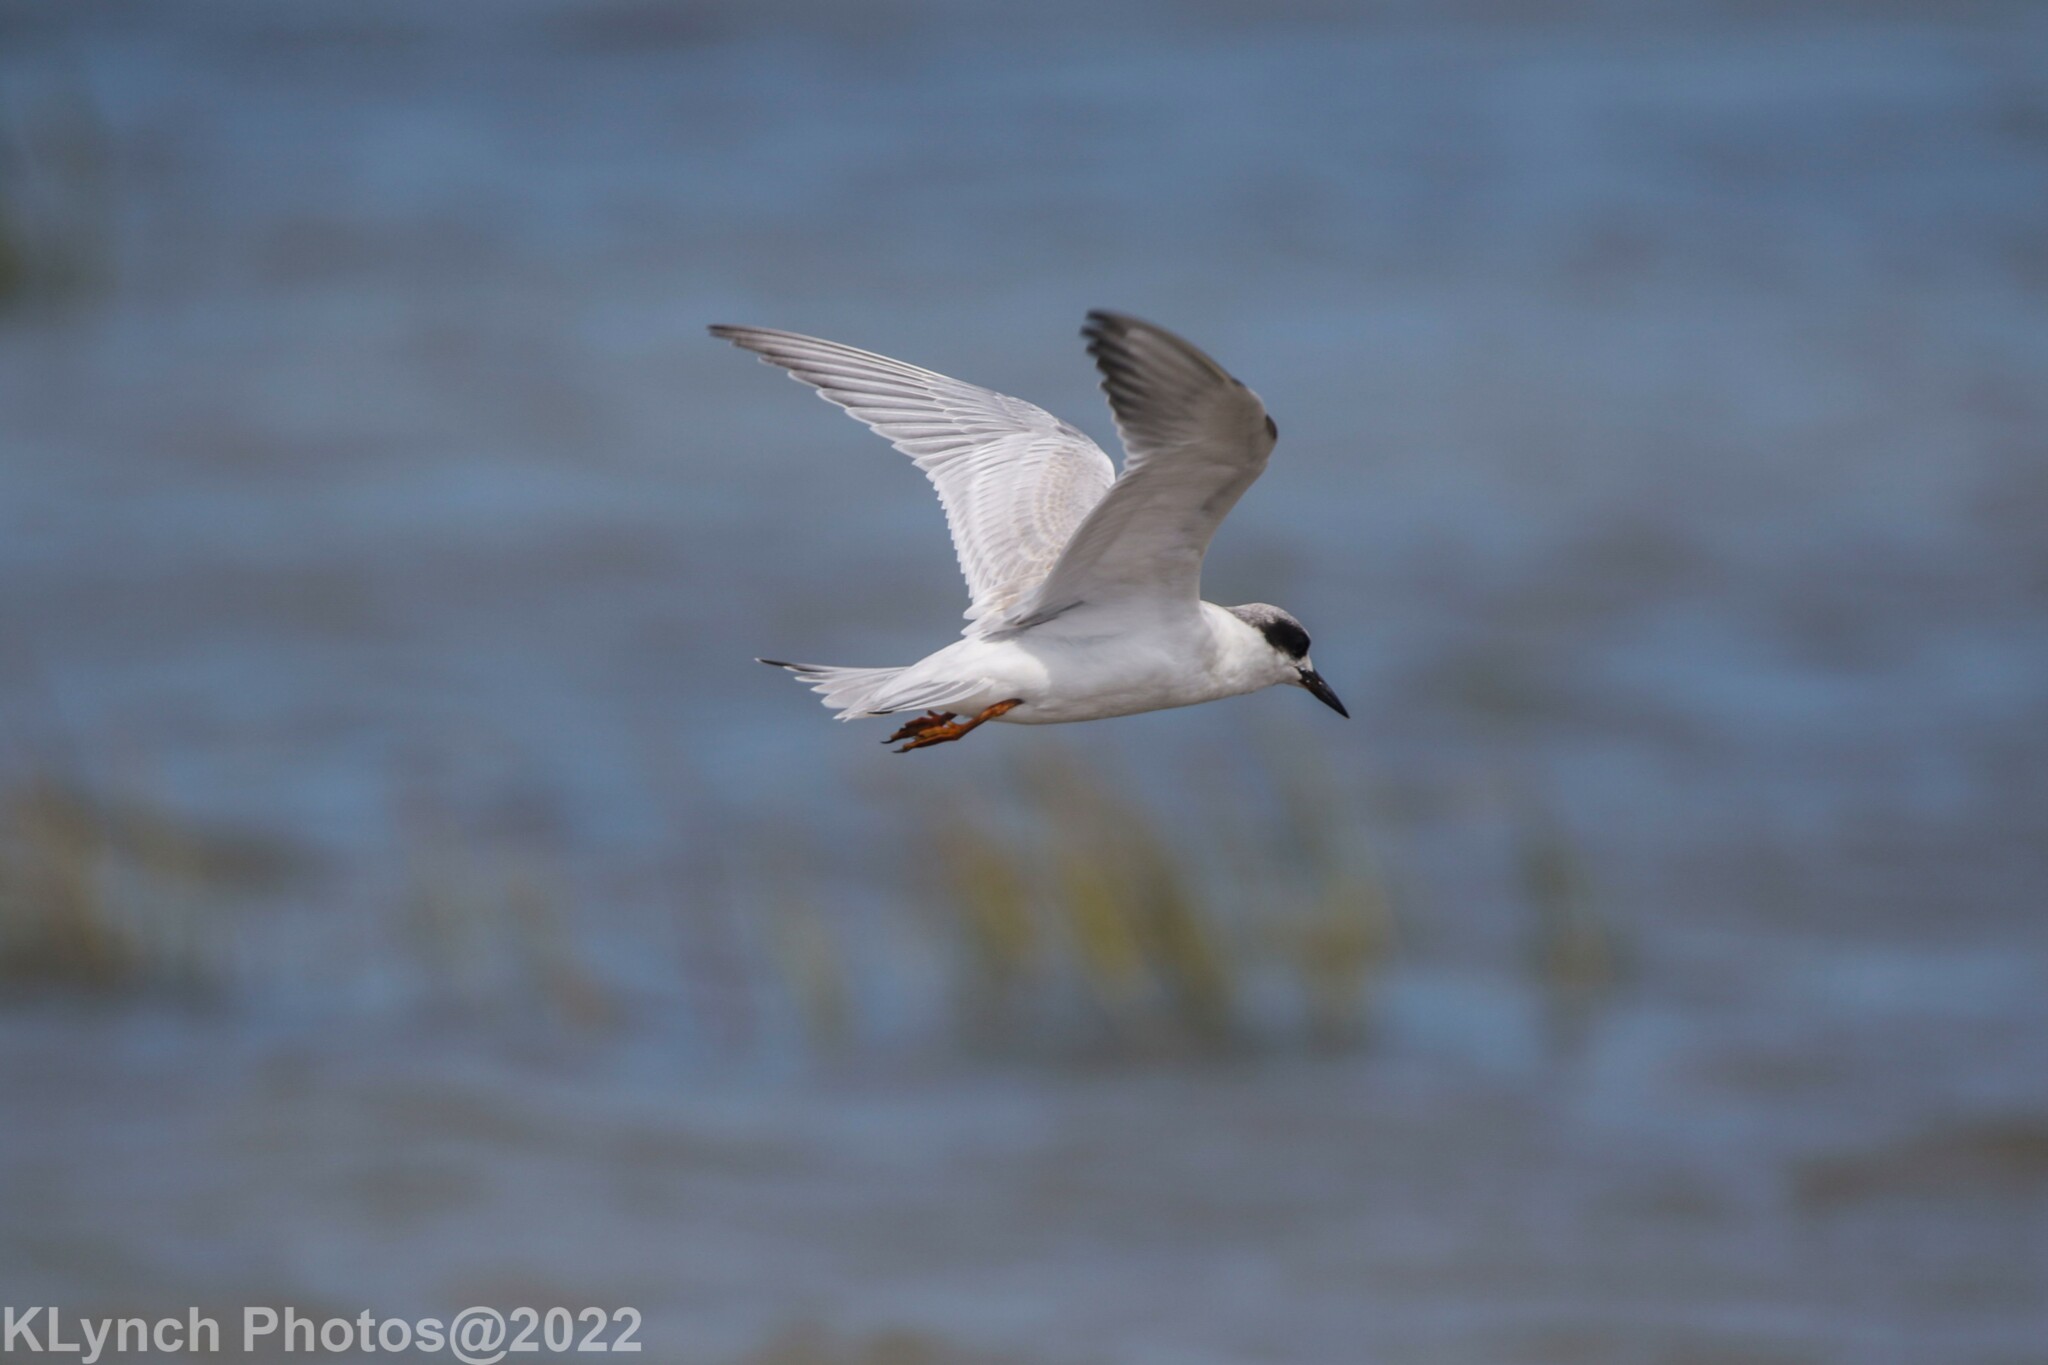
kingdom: Animalia
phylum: Chordata
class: Aves
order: Charadriiformes
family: Laridae
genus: Sterna
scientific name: Sterna forsteri
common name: Forster's tern
